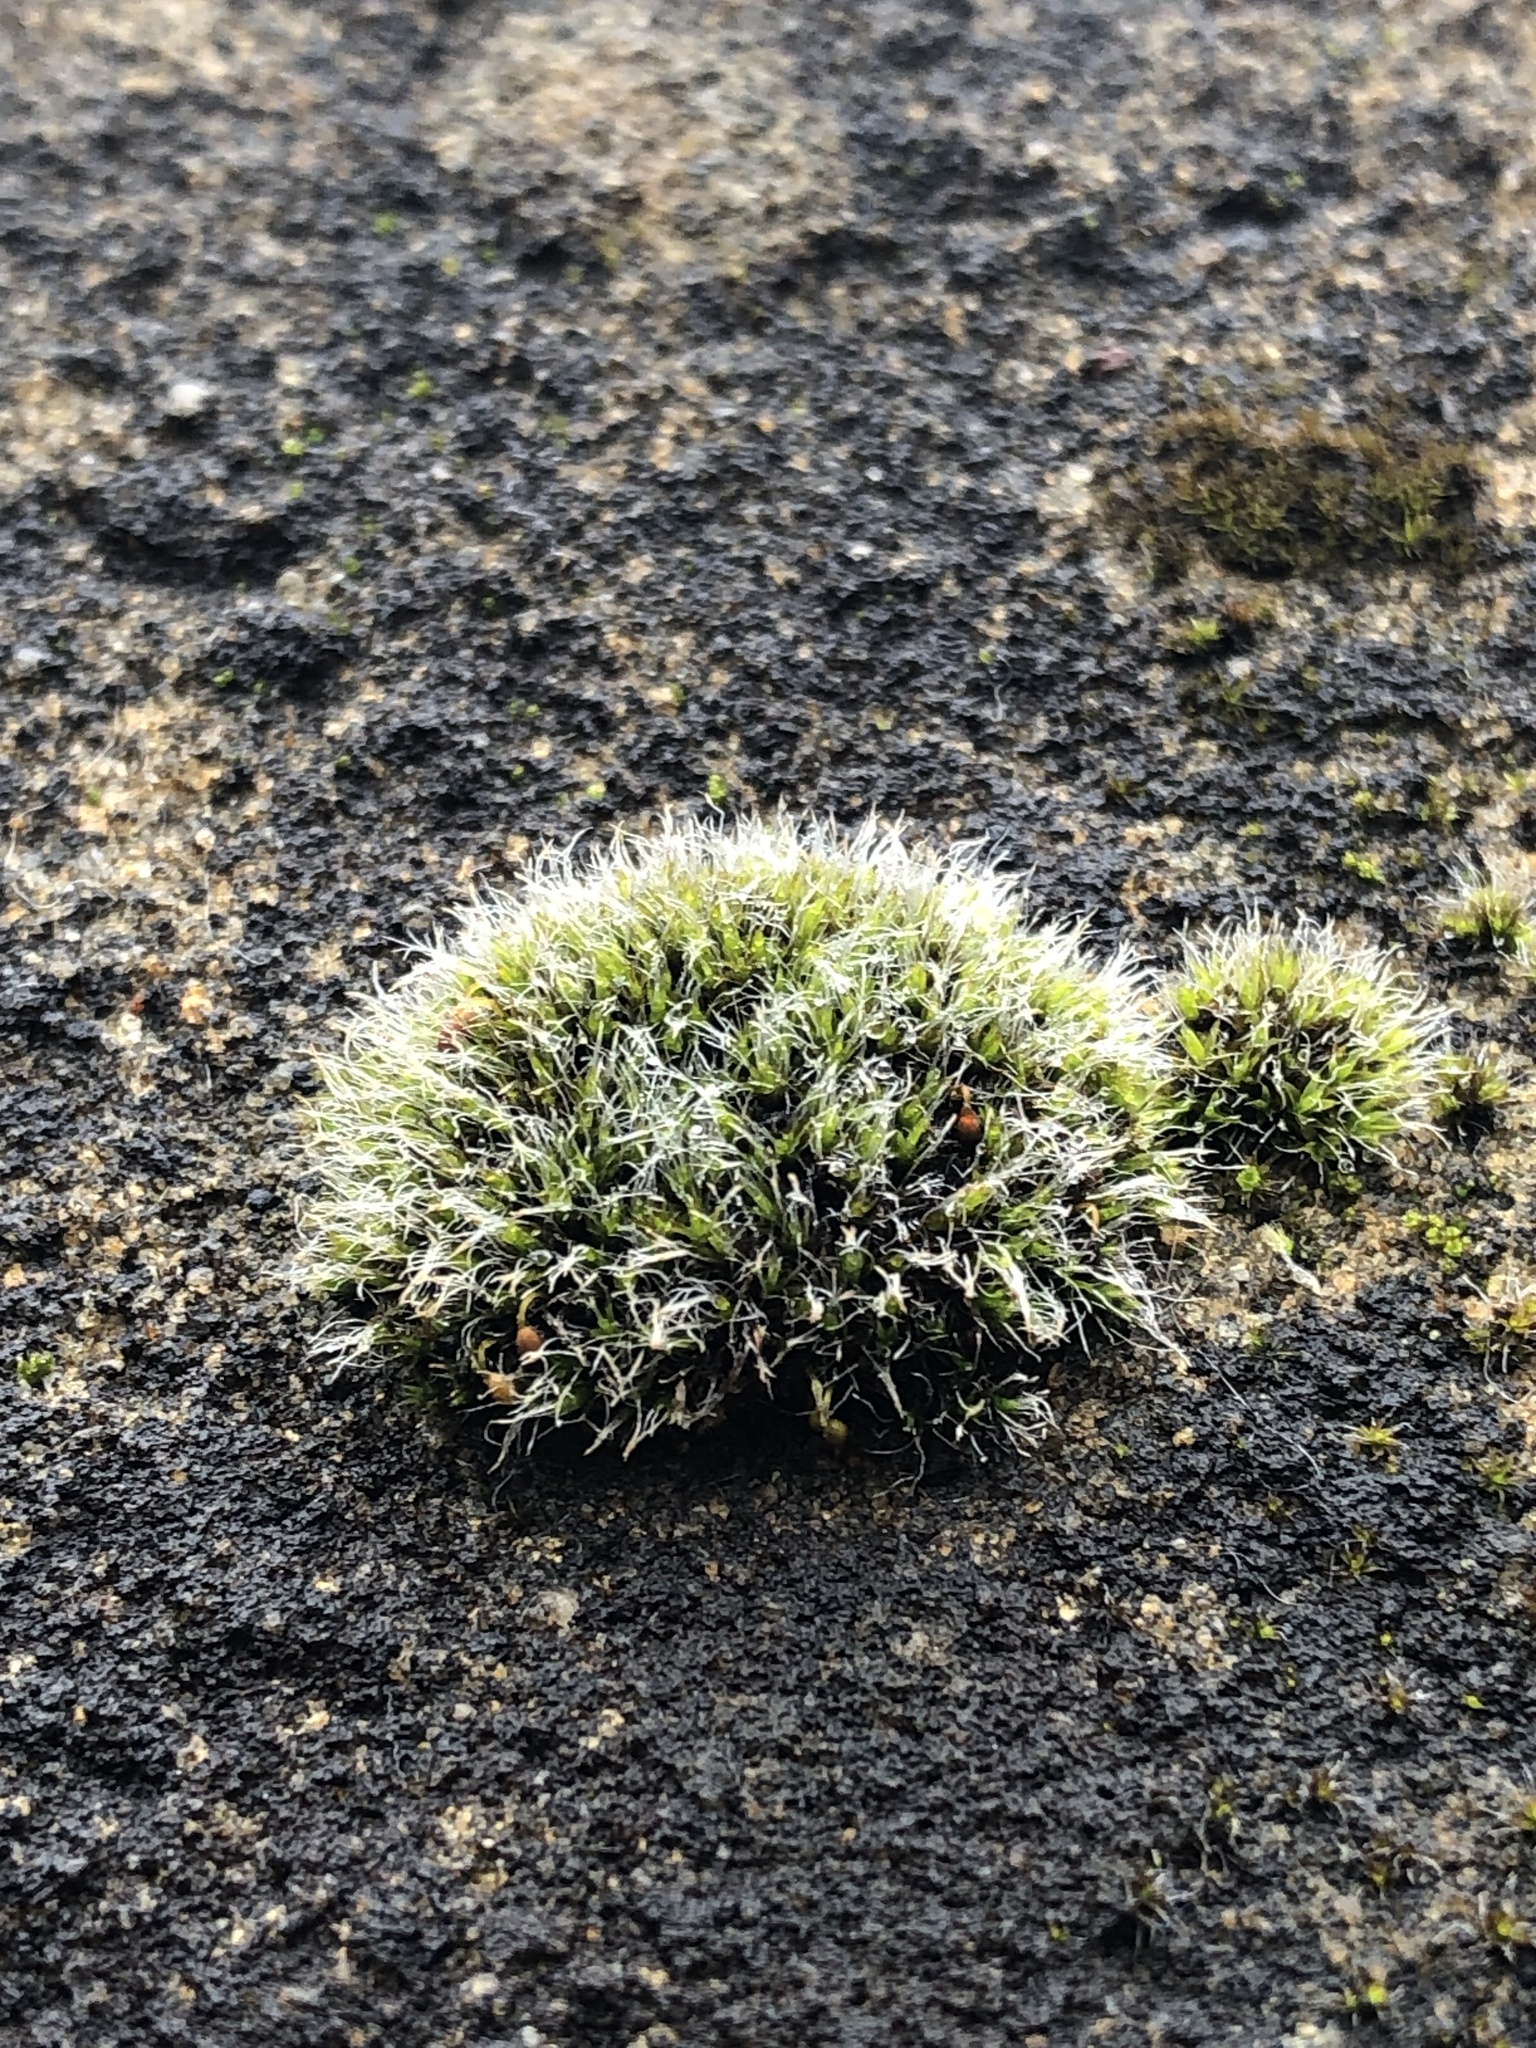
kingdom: Plantae
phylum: Bryophyta
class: Bryopsida
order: Grimmiales
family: Grimmiaceae
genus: Grimmia
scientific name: Grimmia pulvinata
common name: Grey-cushioned grimmia
